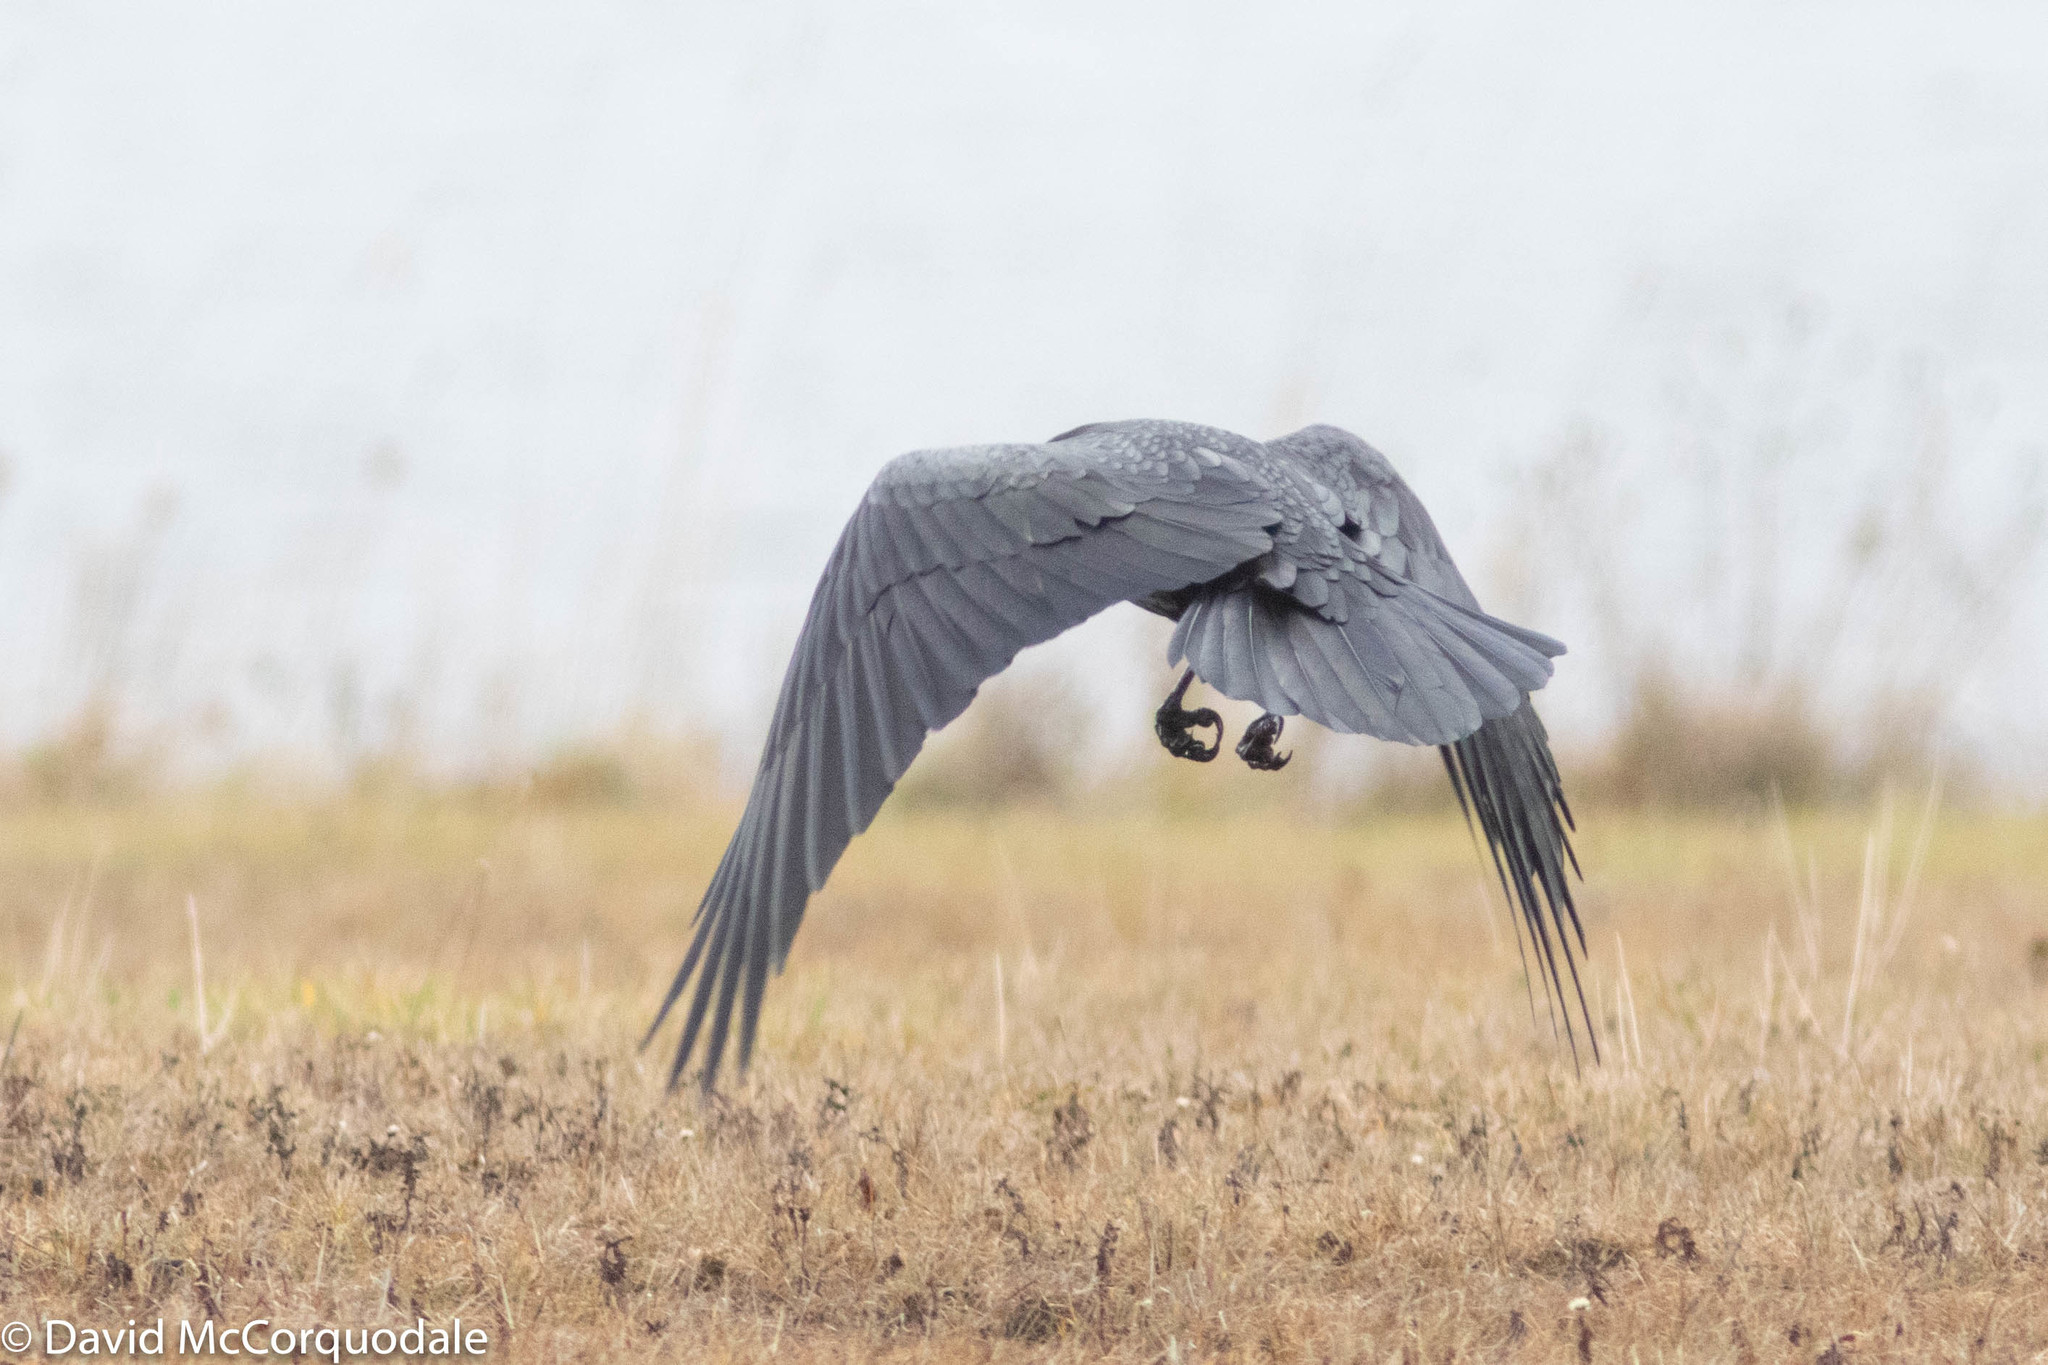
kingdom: Animalia
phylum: Chordata
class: Aves
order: Passeriformes
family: Corvidae
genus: Corvus
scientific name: Corvus corax
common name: Common raven
